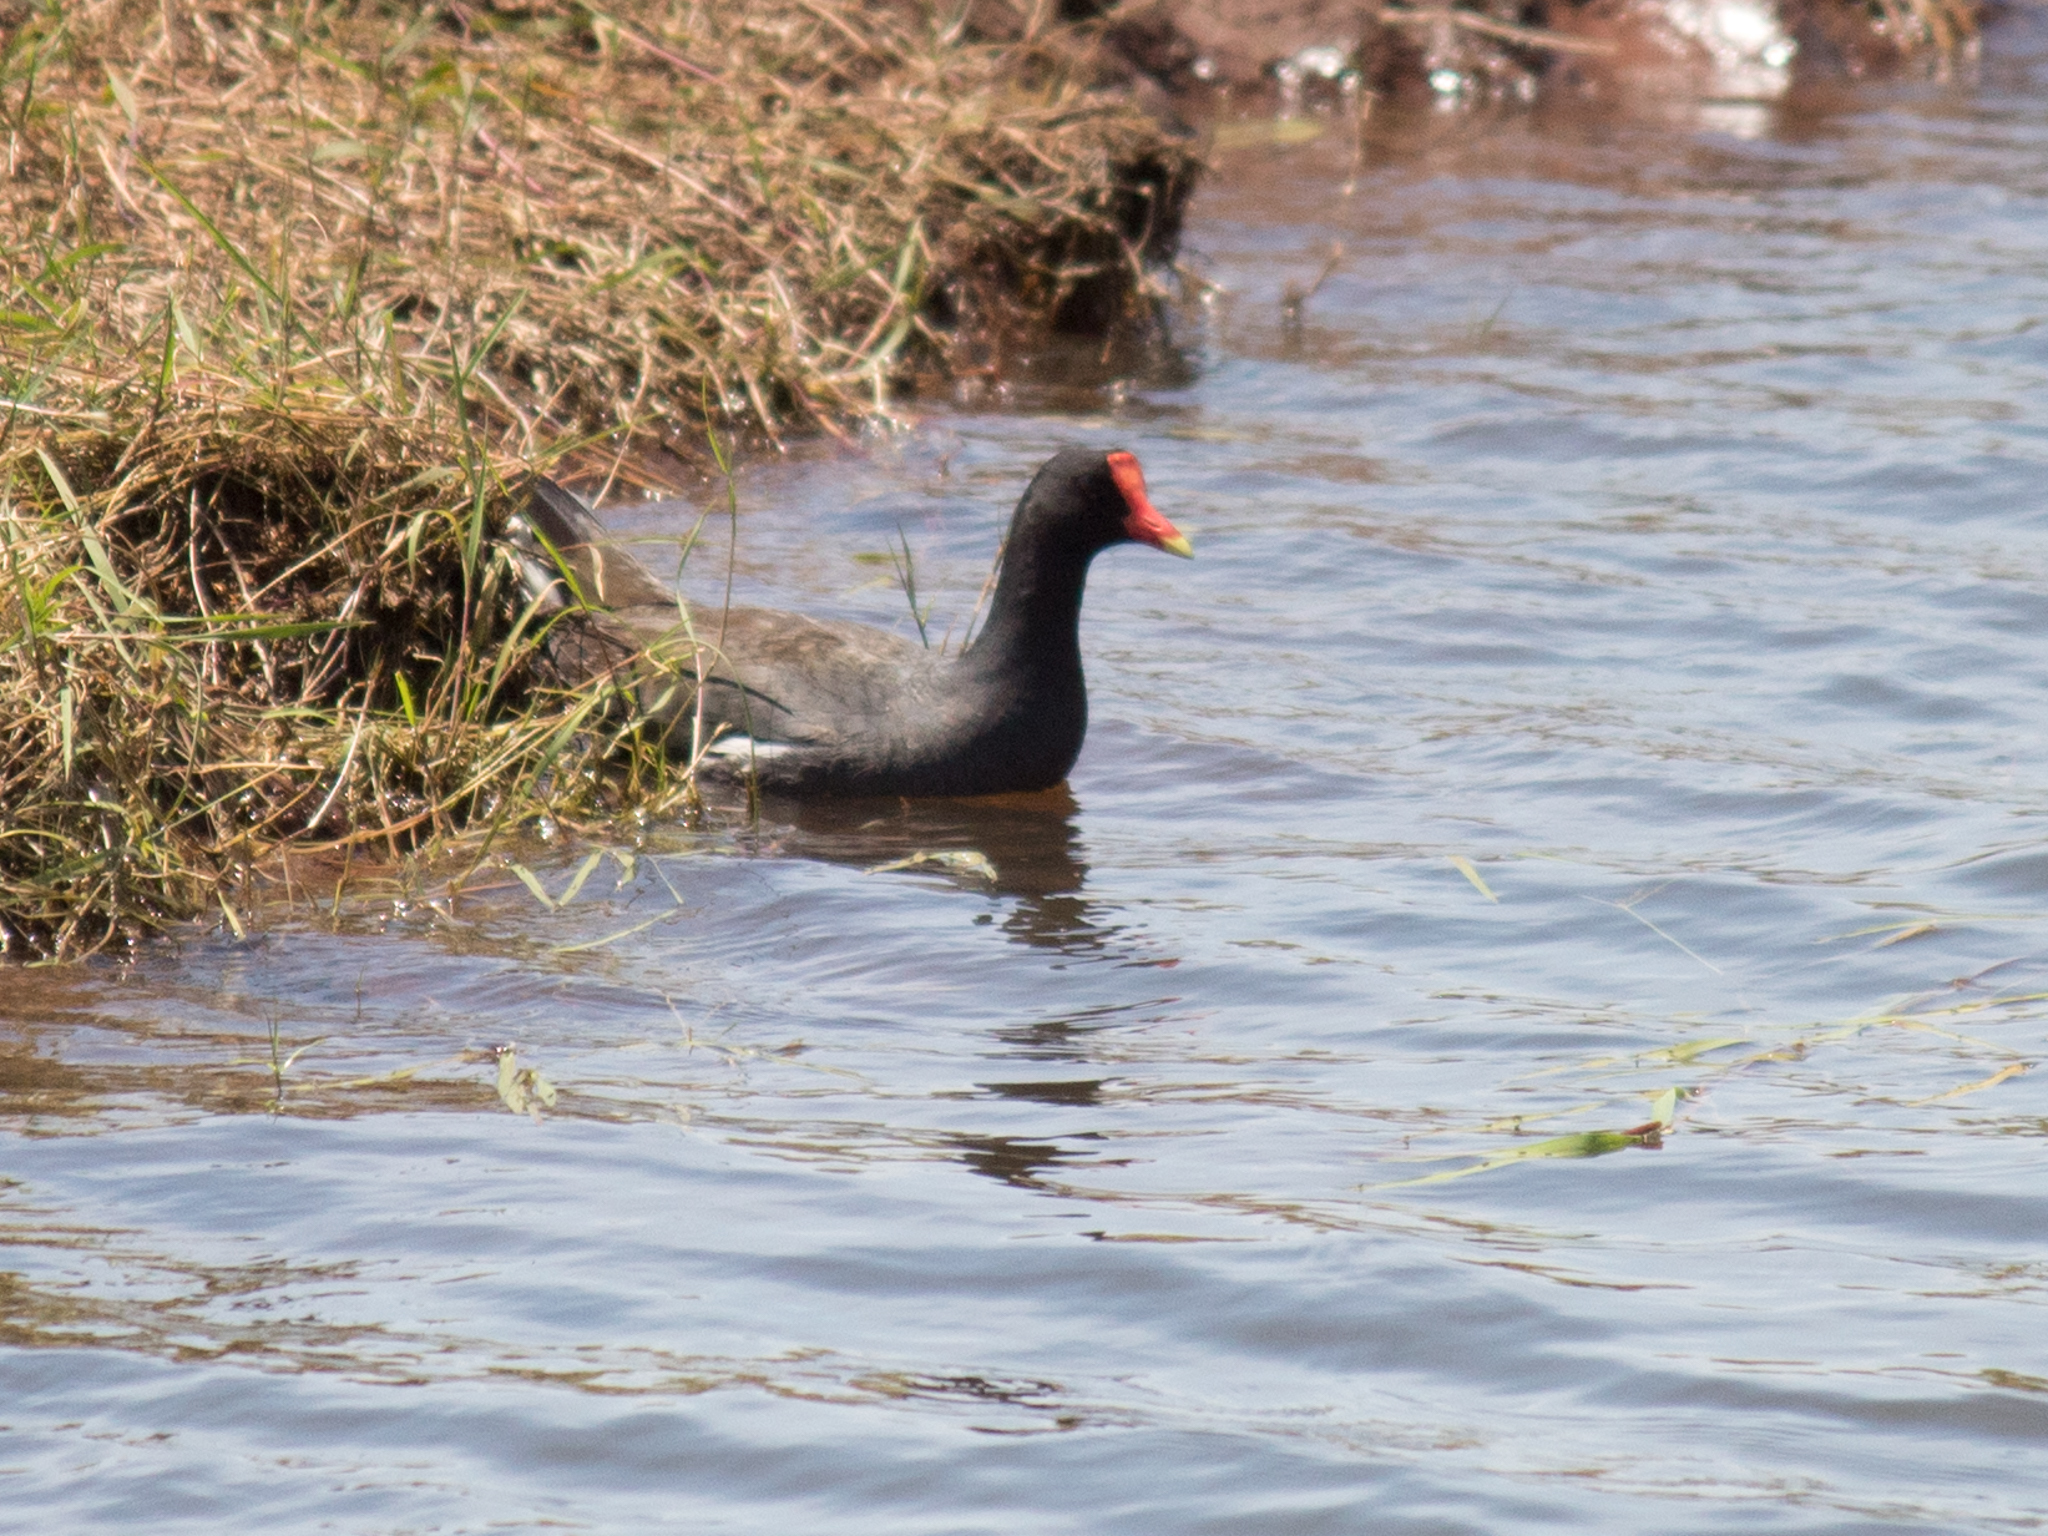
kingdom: Animalia
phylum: Chordata
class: Aves
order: Gruiformes
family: Rallidae
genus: Gallinula
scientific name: Gallinula chloropus
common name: Common moorhen
